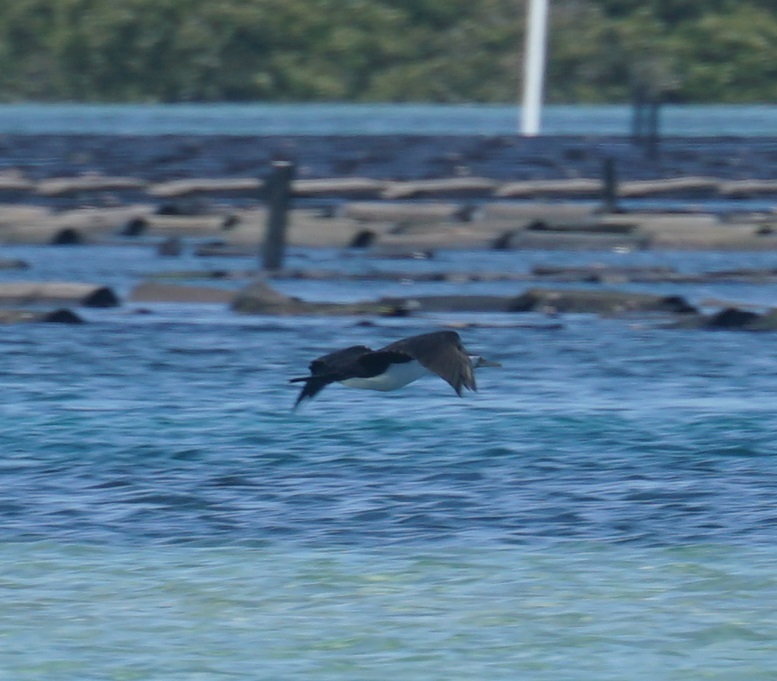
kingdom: Animalia
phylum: Chordata
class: Aves
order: Suliformes
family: Phalacrocoracidae
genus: Phalacrocorax
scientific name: Phalacrocorax varius
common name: Pied cormorant
